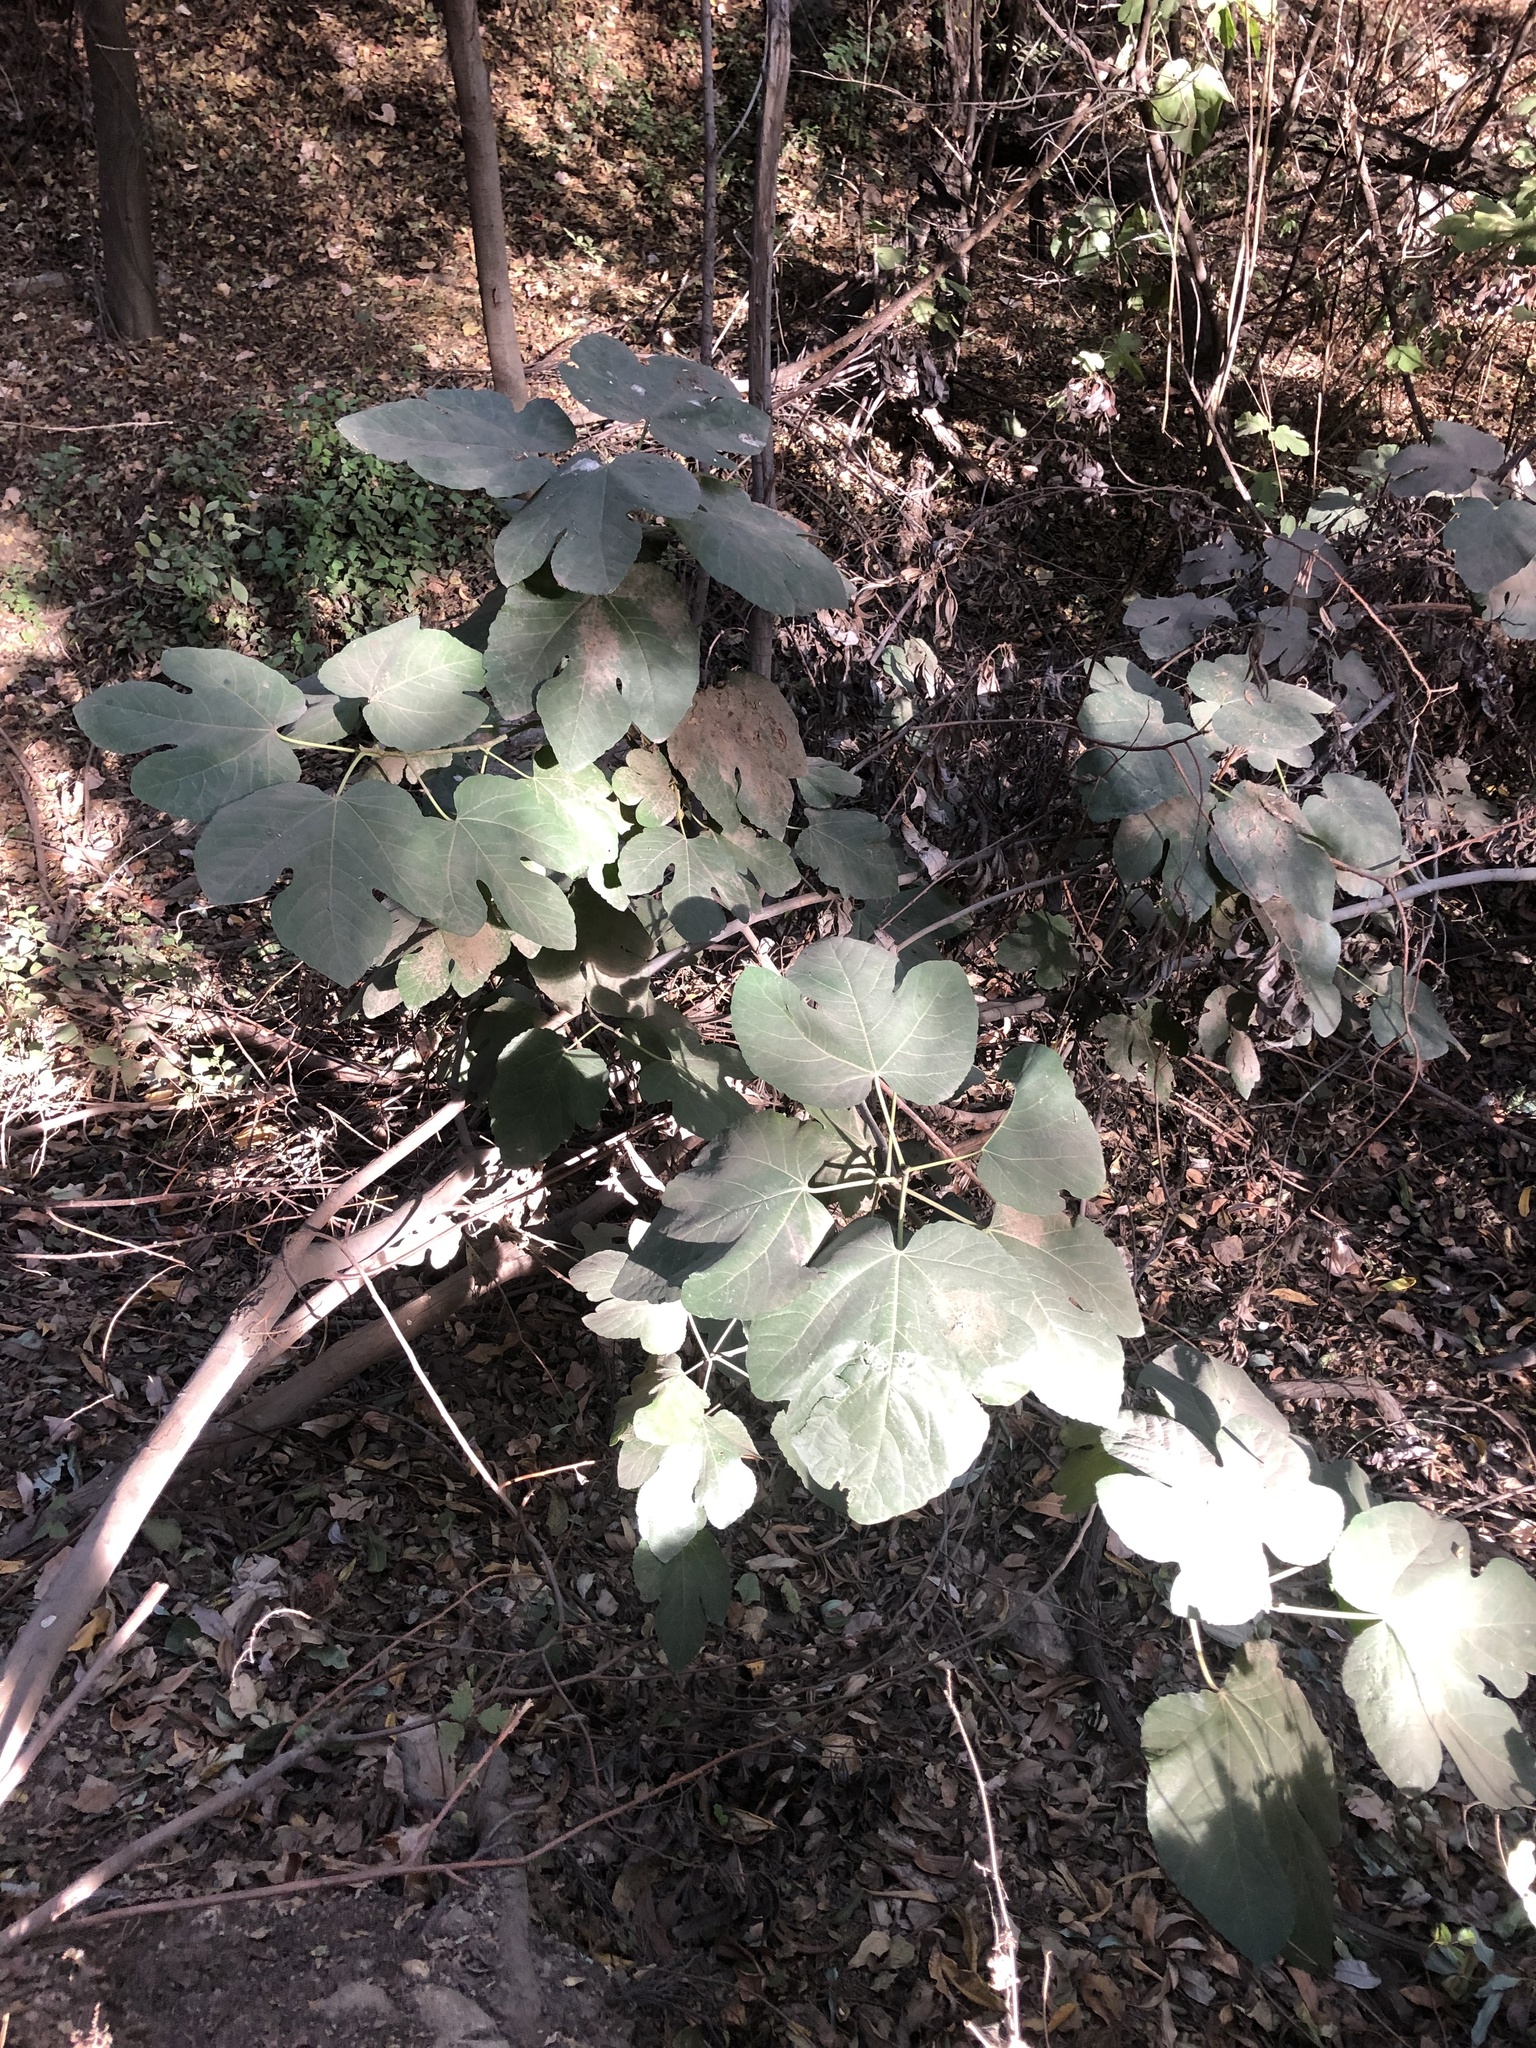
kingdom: Plantae
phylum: Tracheophyta
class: Magnoliopsida
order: Rosales
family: Moraceae
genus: Ficus
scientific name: Ficus carica
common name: Fig
